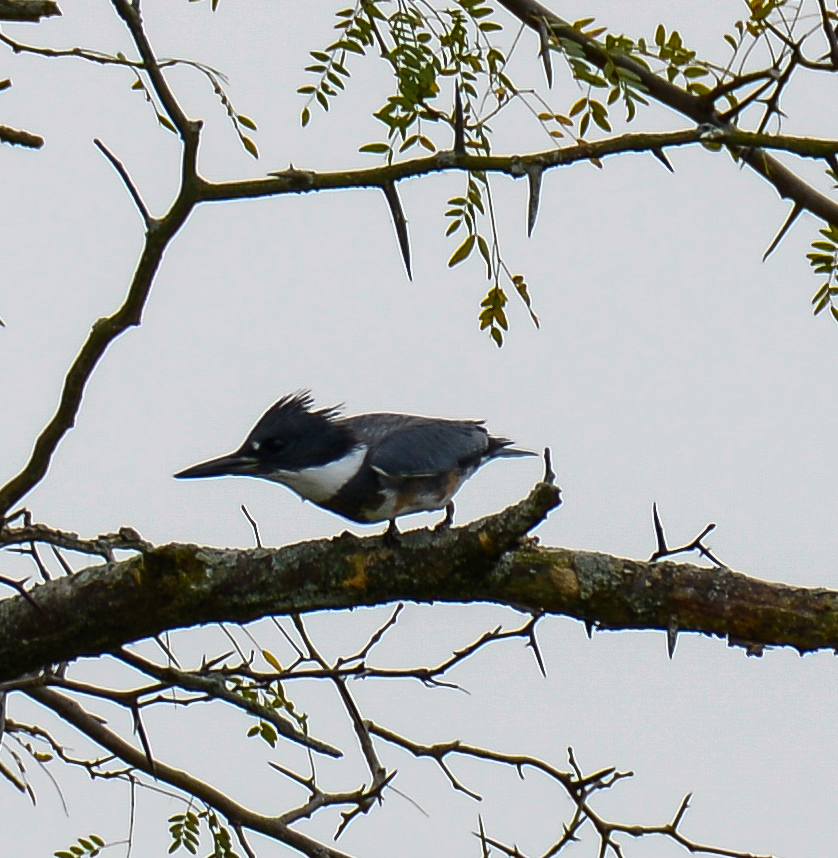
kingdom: Animalia
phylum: Chordata
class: Aves
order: Coraciiformes
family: Alcedinidae
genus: Megaceryle
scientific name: Megaceryle alcyon
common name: Belted kingfisher
